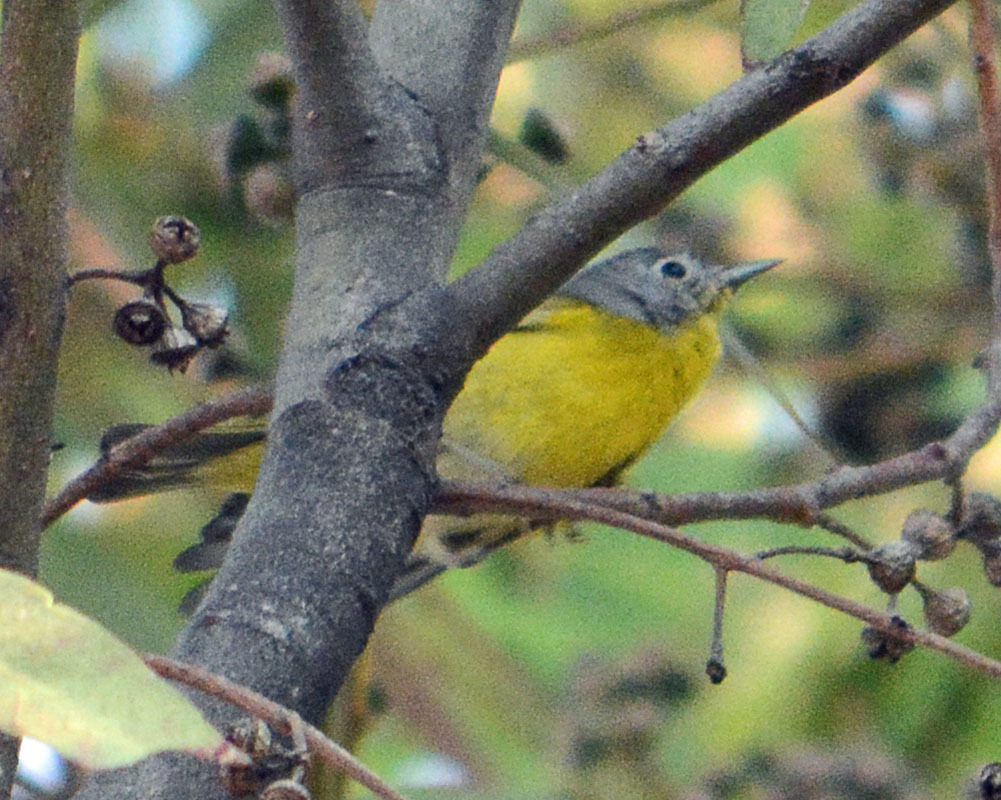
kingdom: Animalia
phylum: Chordata
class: Aves
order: Passeriformes
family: Parulidae
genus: Leiothlypis
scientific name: Leiothlypis ruficapilla
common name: Nashville warbler
